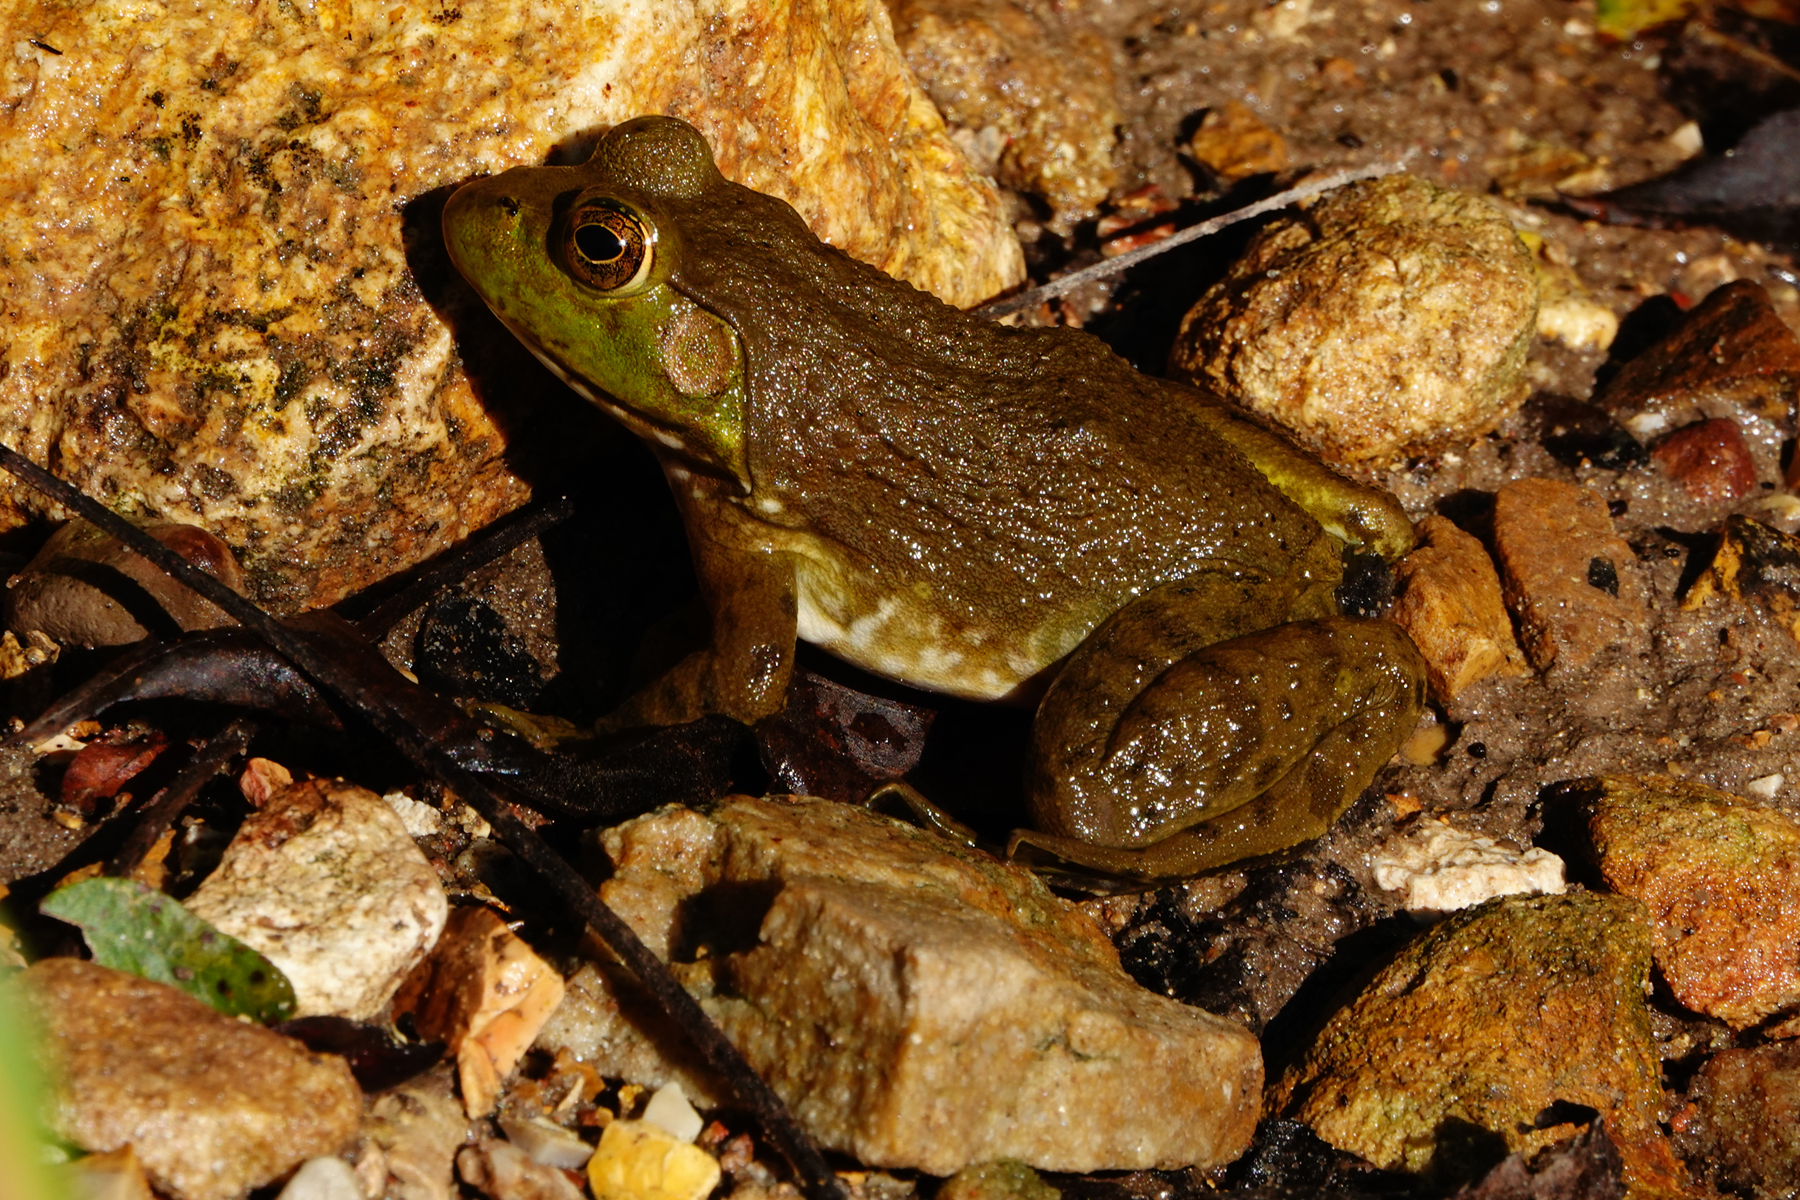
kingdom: Animalia
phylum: Chordata
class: Amphibia
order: Anura
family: Ranidae
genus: Lithobates
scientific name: Lithobates catesbeianus
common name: American bullfrog
